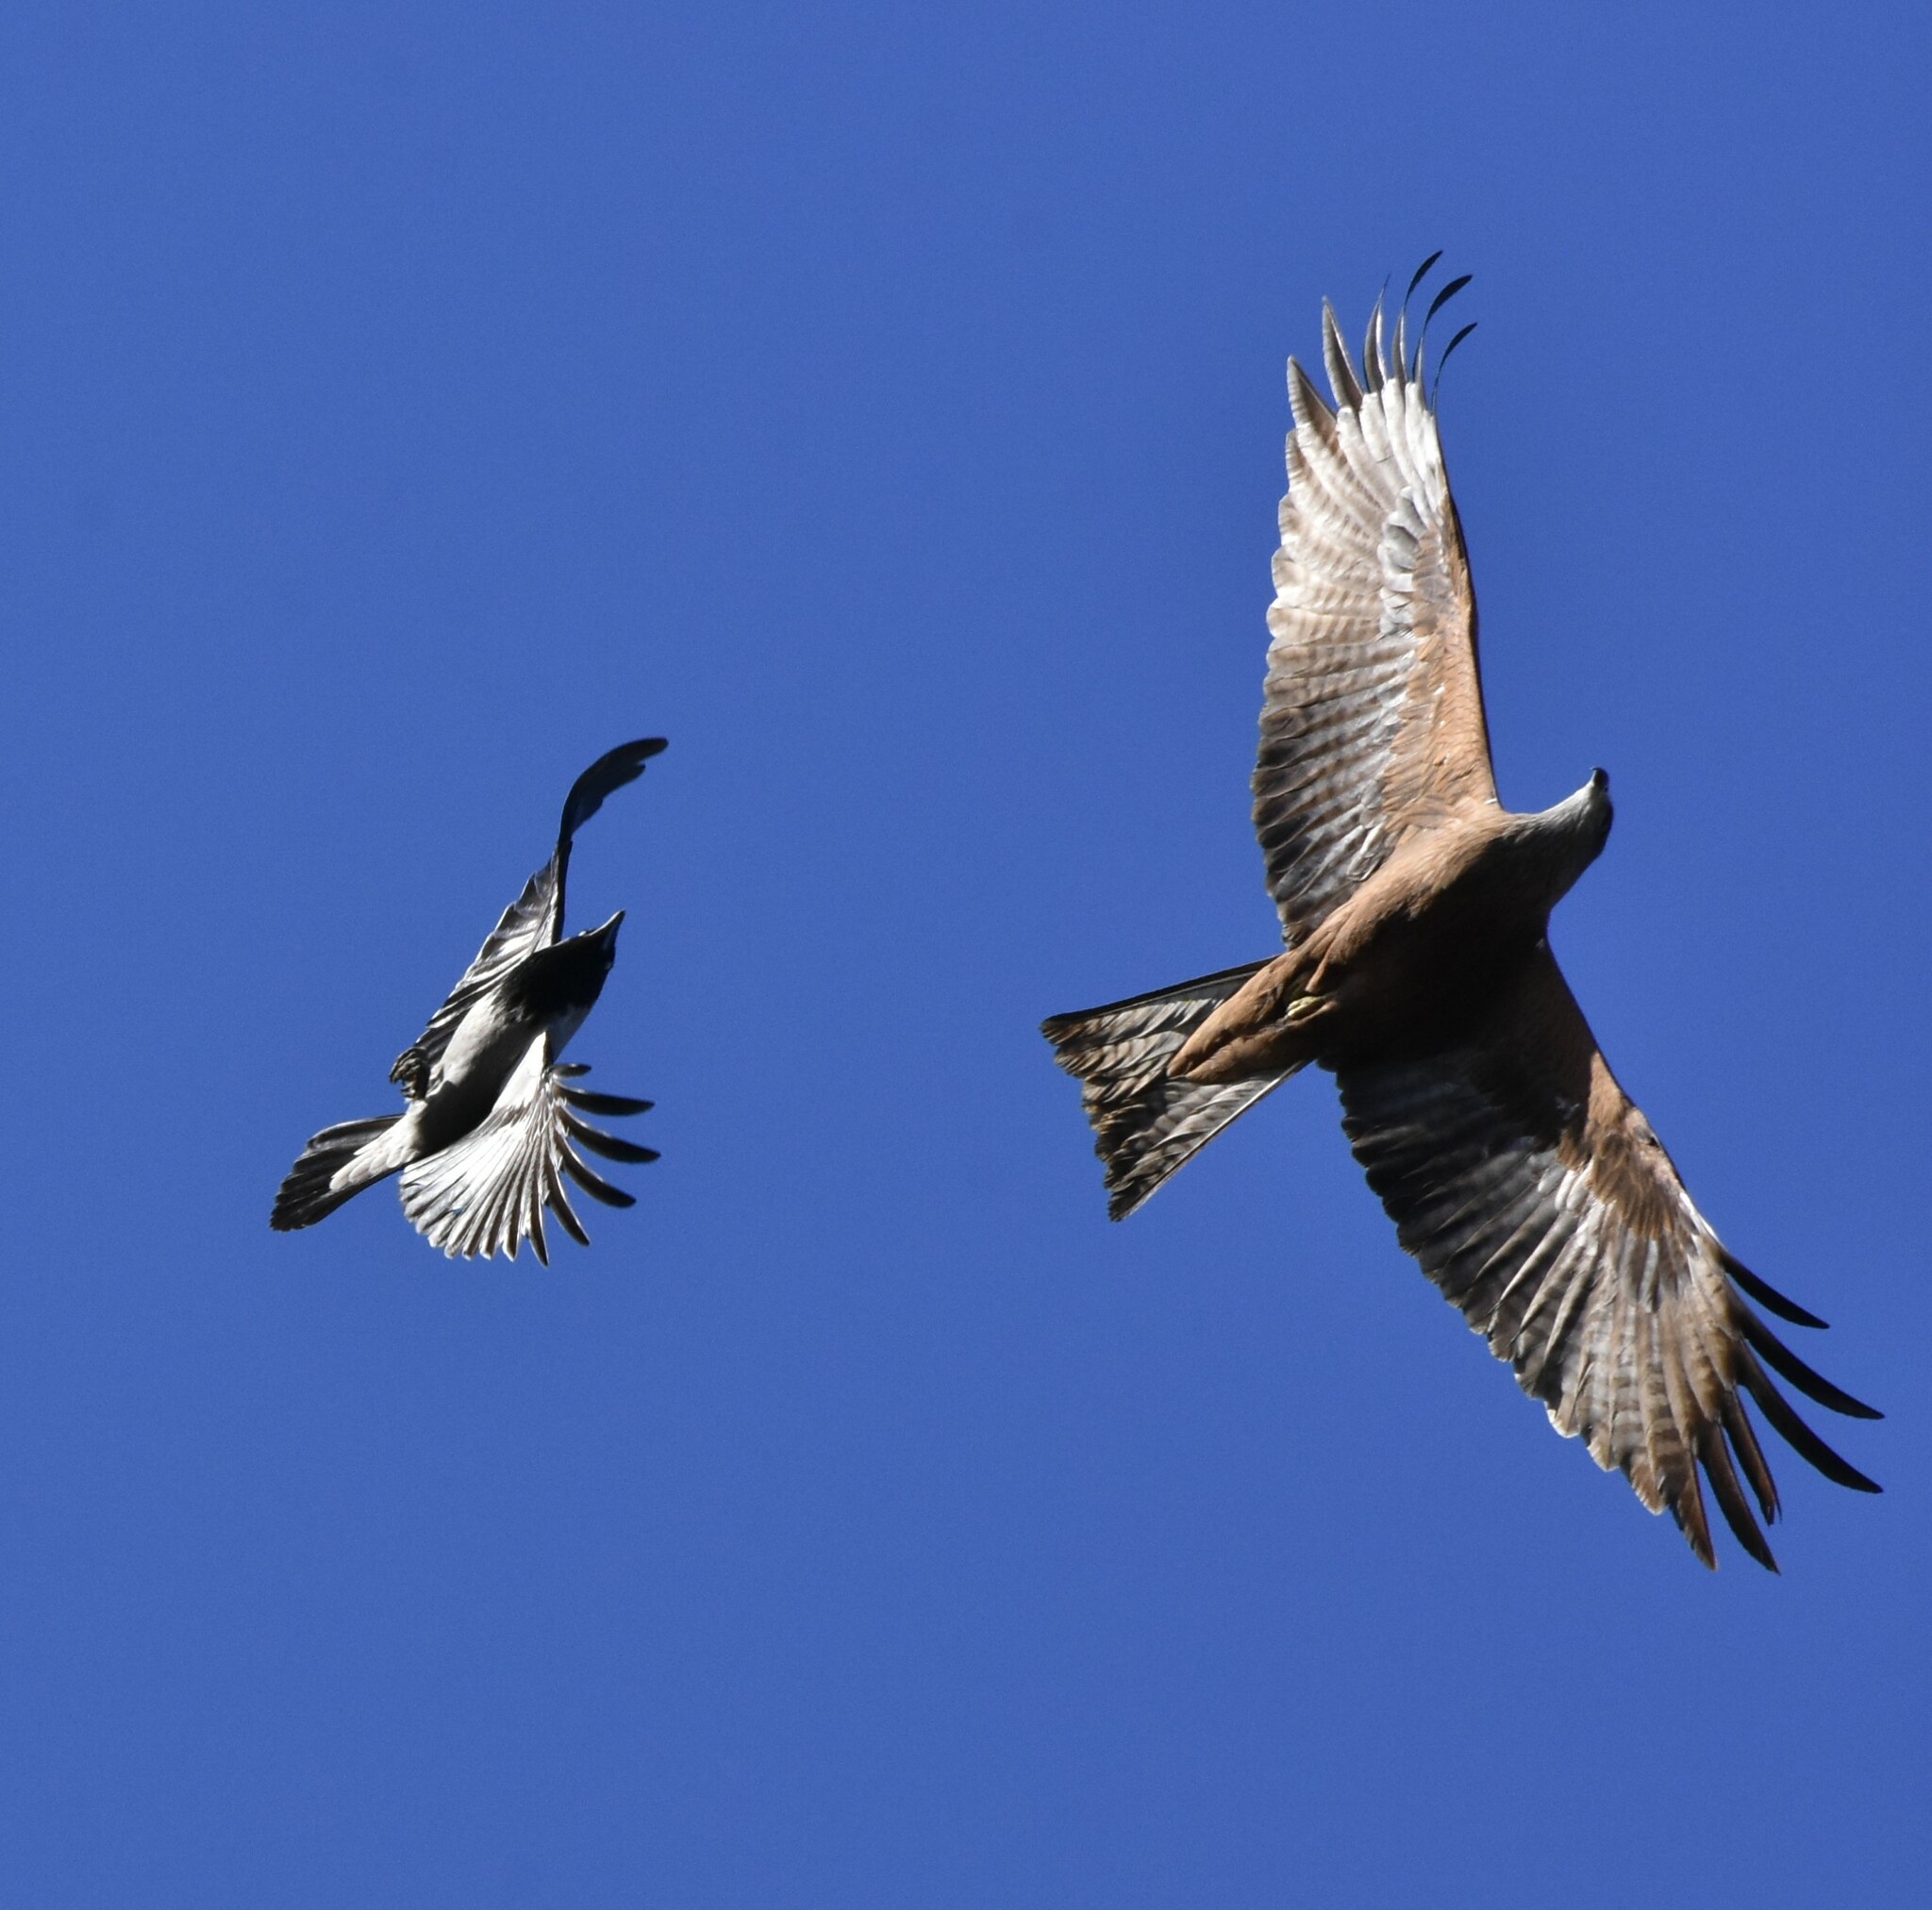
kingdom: Animalia
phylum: Chordata
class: Aves
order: Accipitriformes
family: Accipitridae
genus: Milvus
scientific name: Milvus migrans
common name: Black kite
